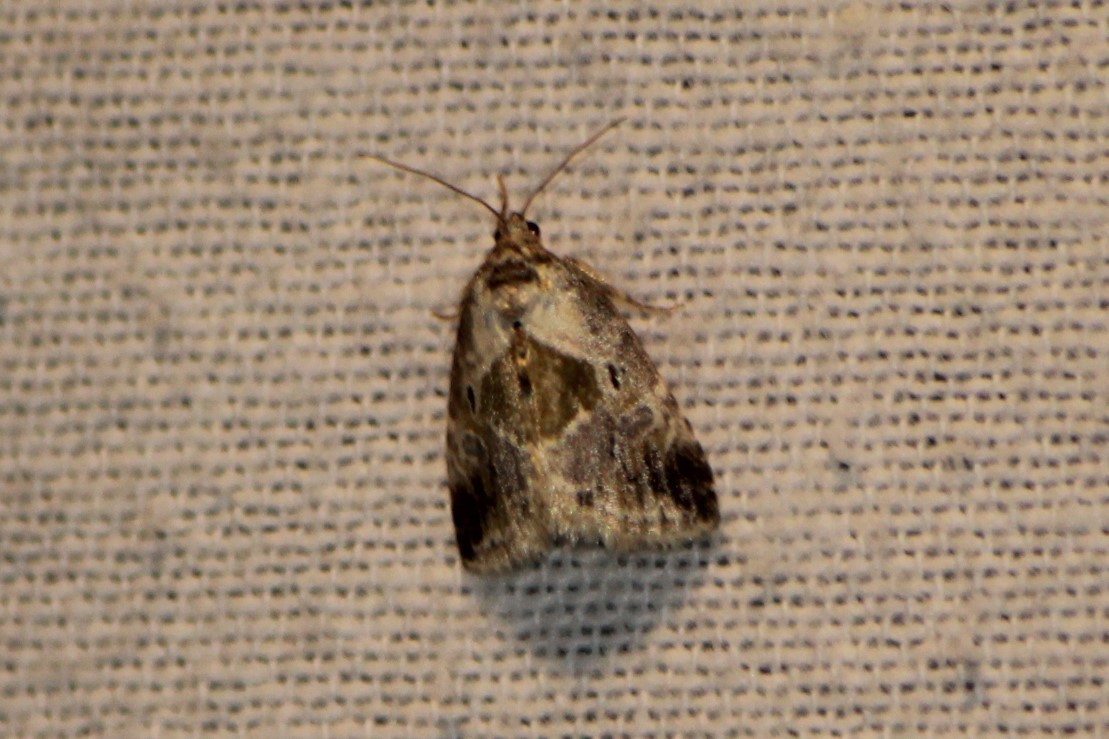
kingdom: Animalia
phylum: Arthropoda
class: Insecta
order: Lepidoptera
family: Noctuidae
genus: Maliattha
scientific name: Maliattha synochitis
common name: Black-dotted glyph
